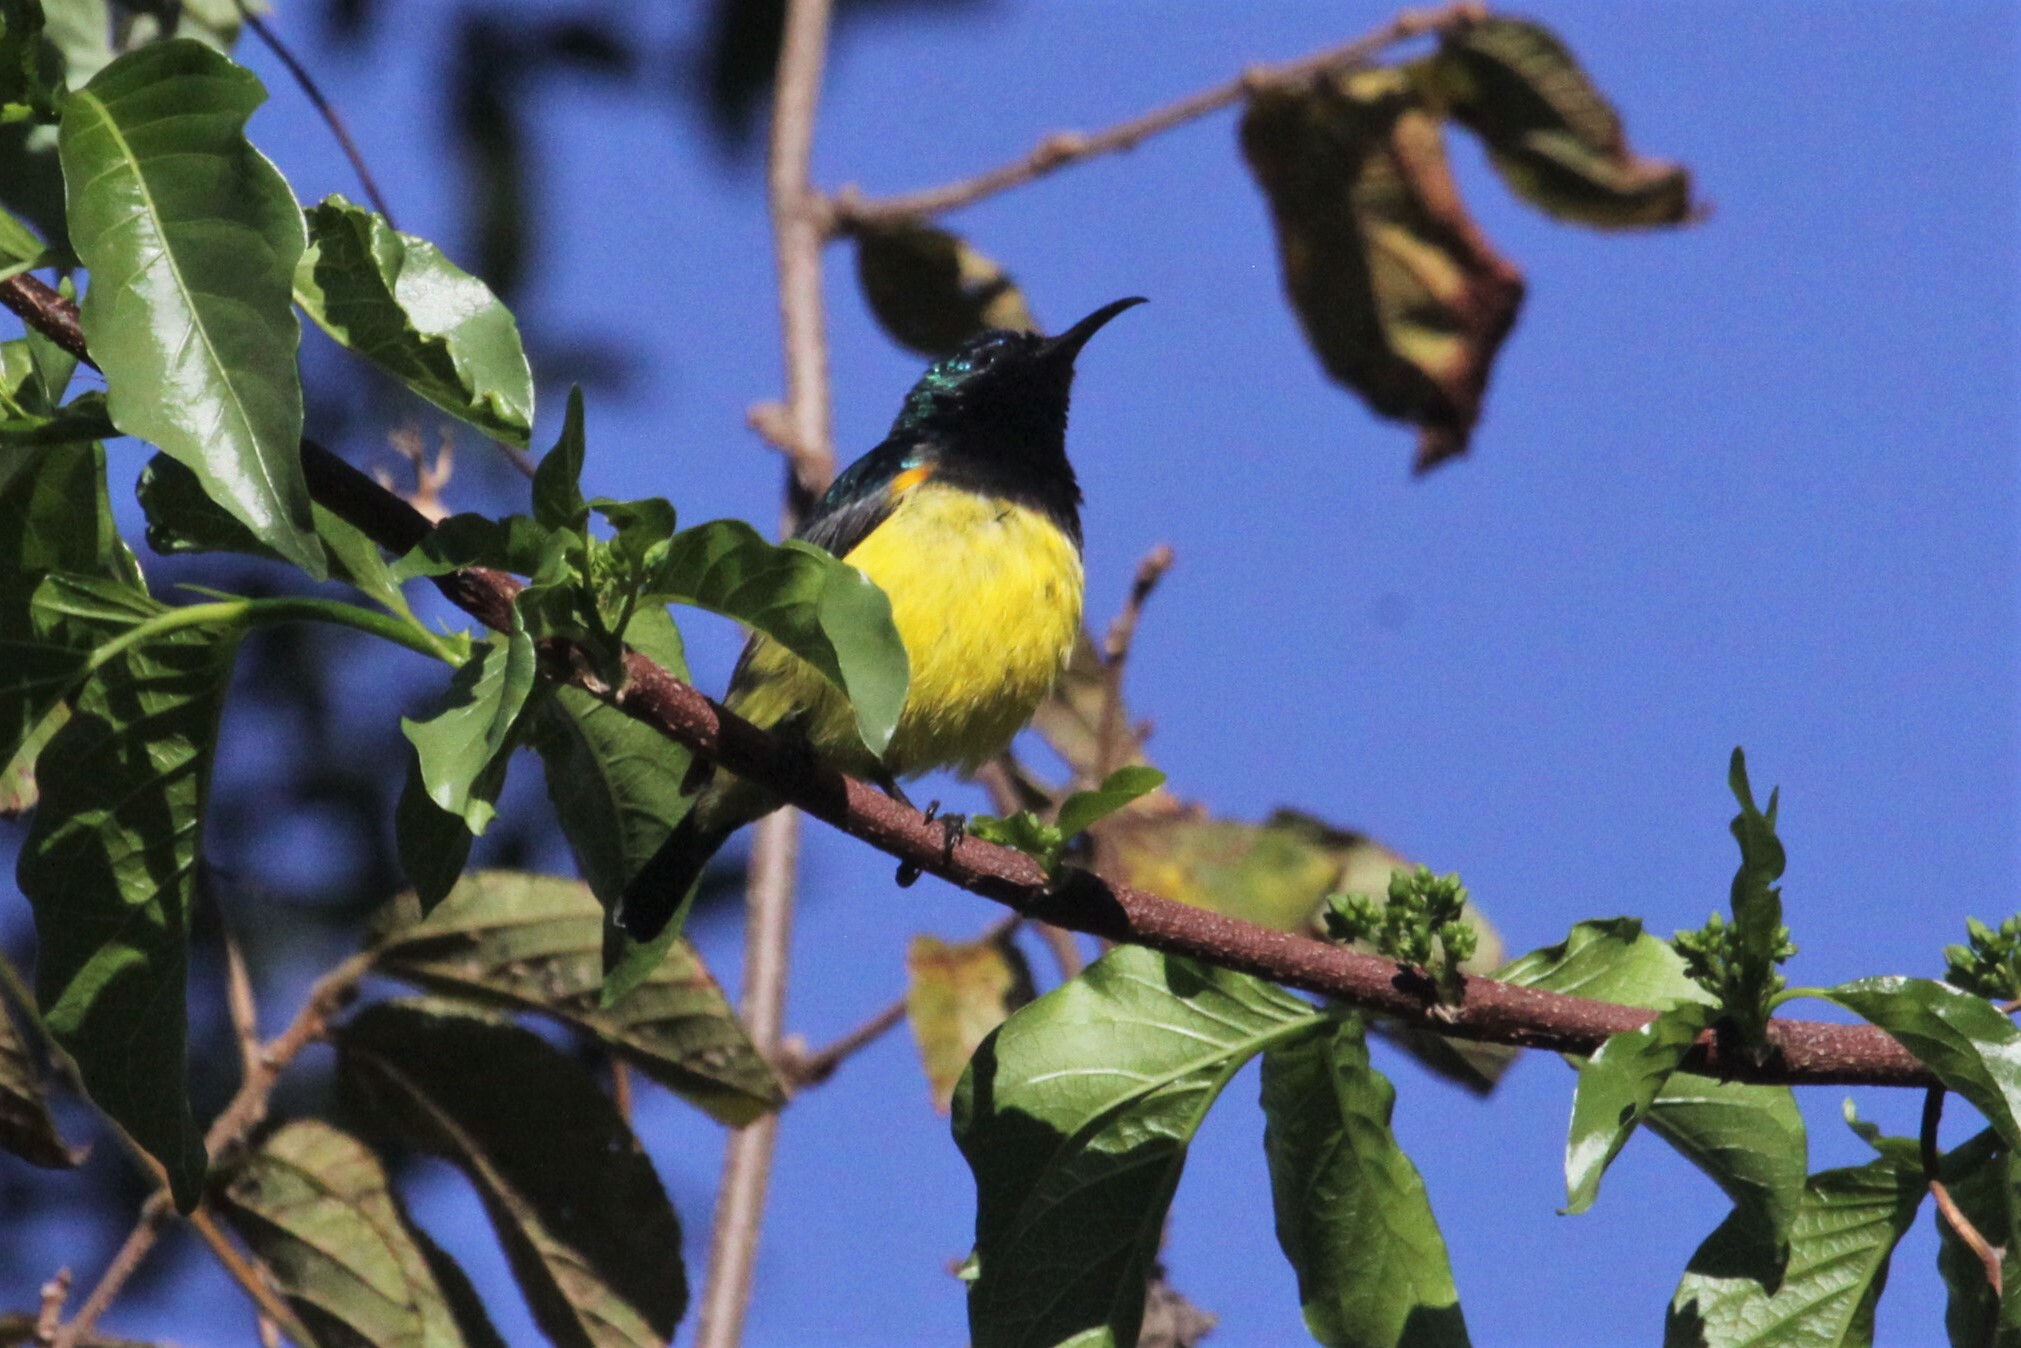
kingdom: Animalia
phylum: Chordata
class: Aves
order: Passeriformes
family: Nectariniidae
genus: Cinnyris
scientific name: Cinnyris venustus
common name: Variable sunbird
